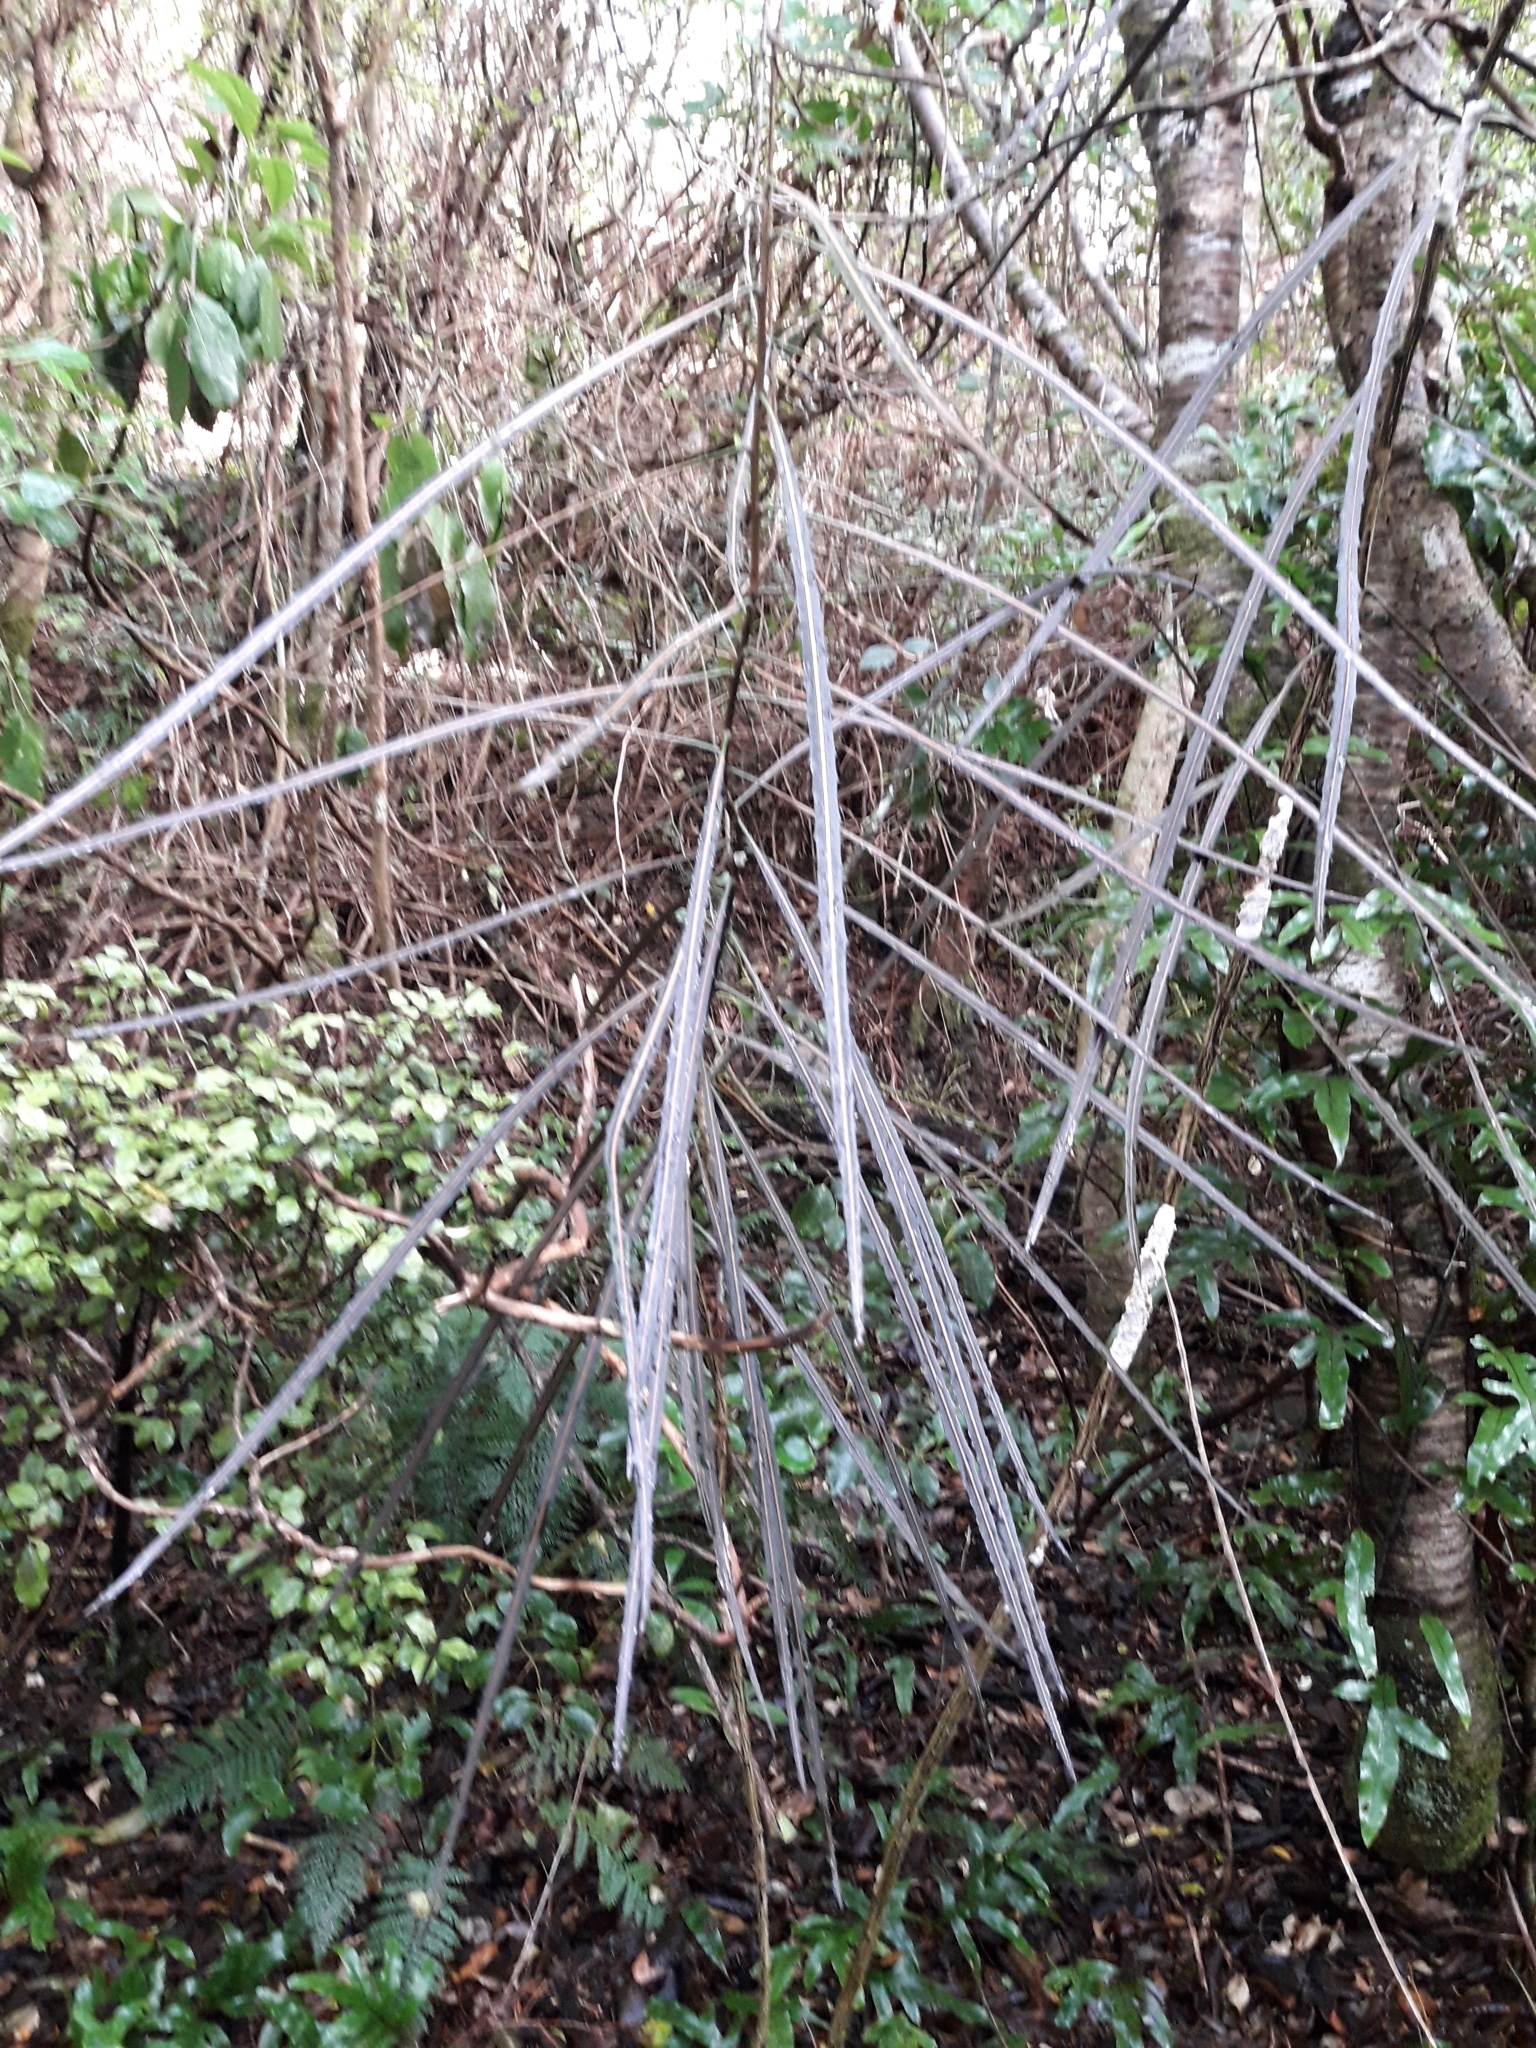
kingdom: Plantae
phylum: Tracheophyta
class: Magnoliopsida
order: Apiales
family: Araliaceae
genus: Pseudopanax
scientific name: Pseudopanax crassifolius
